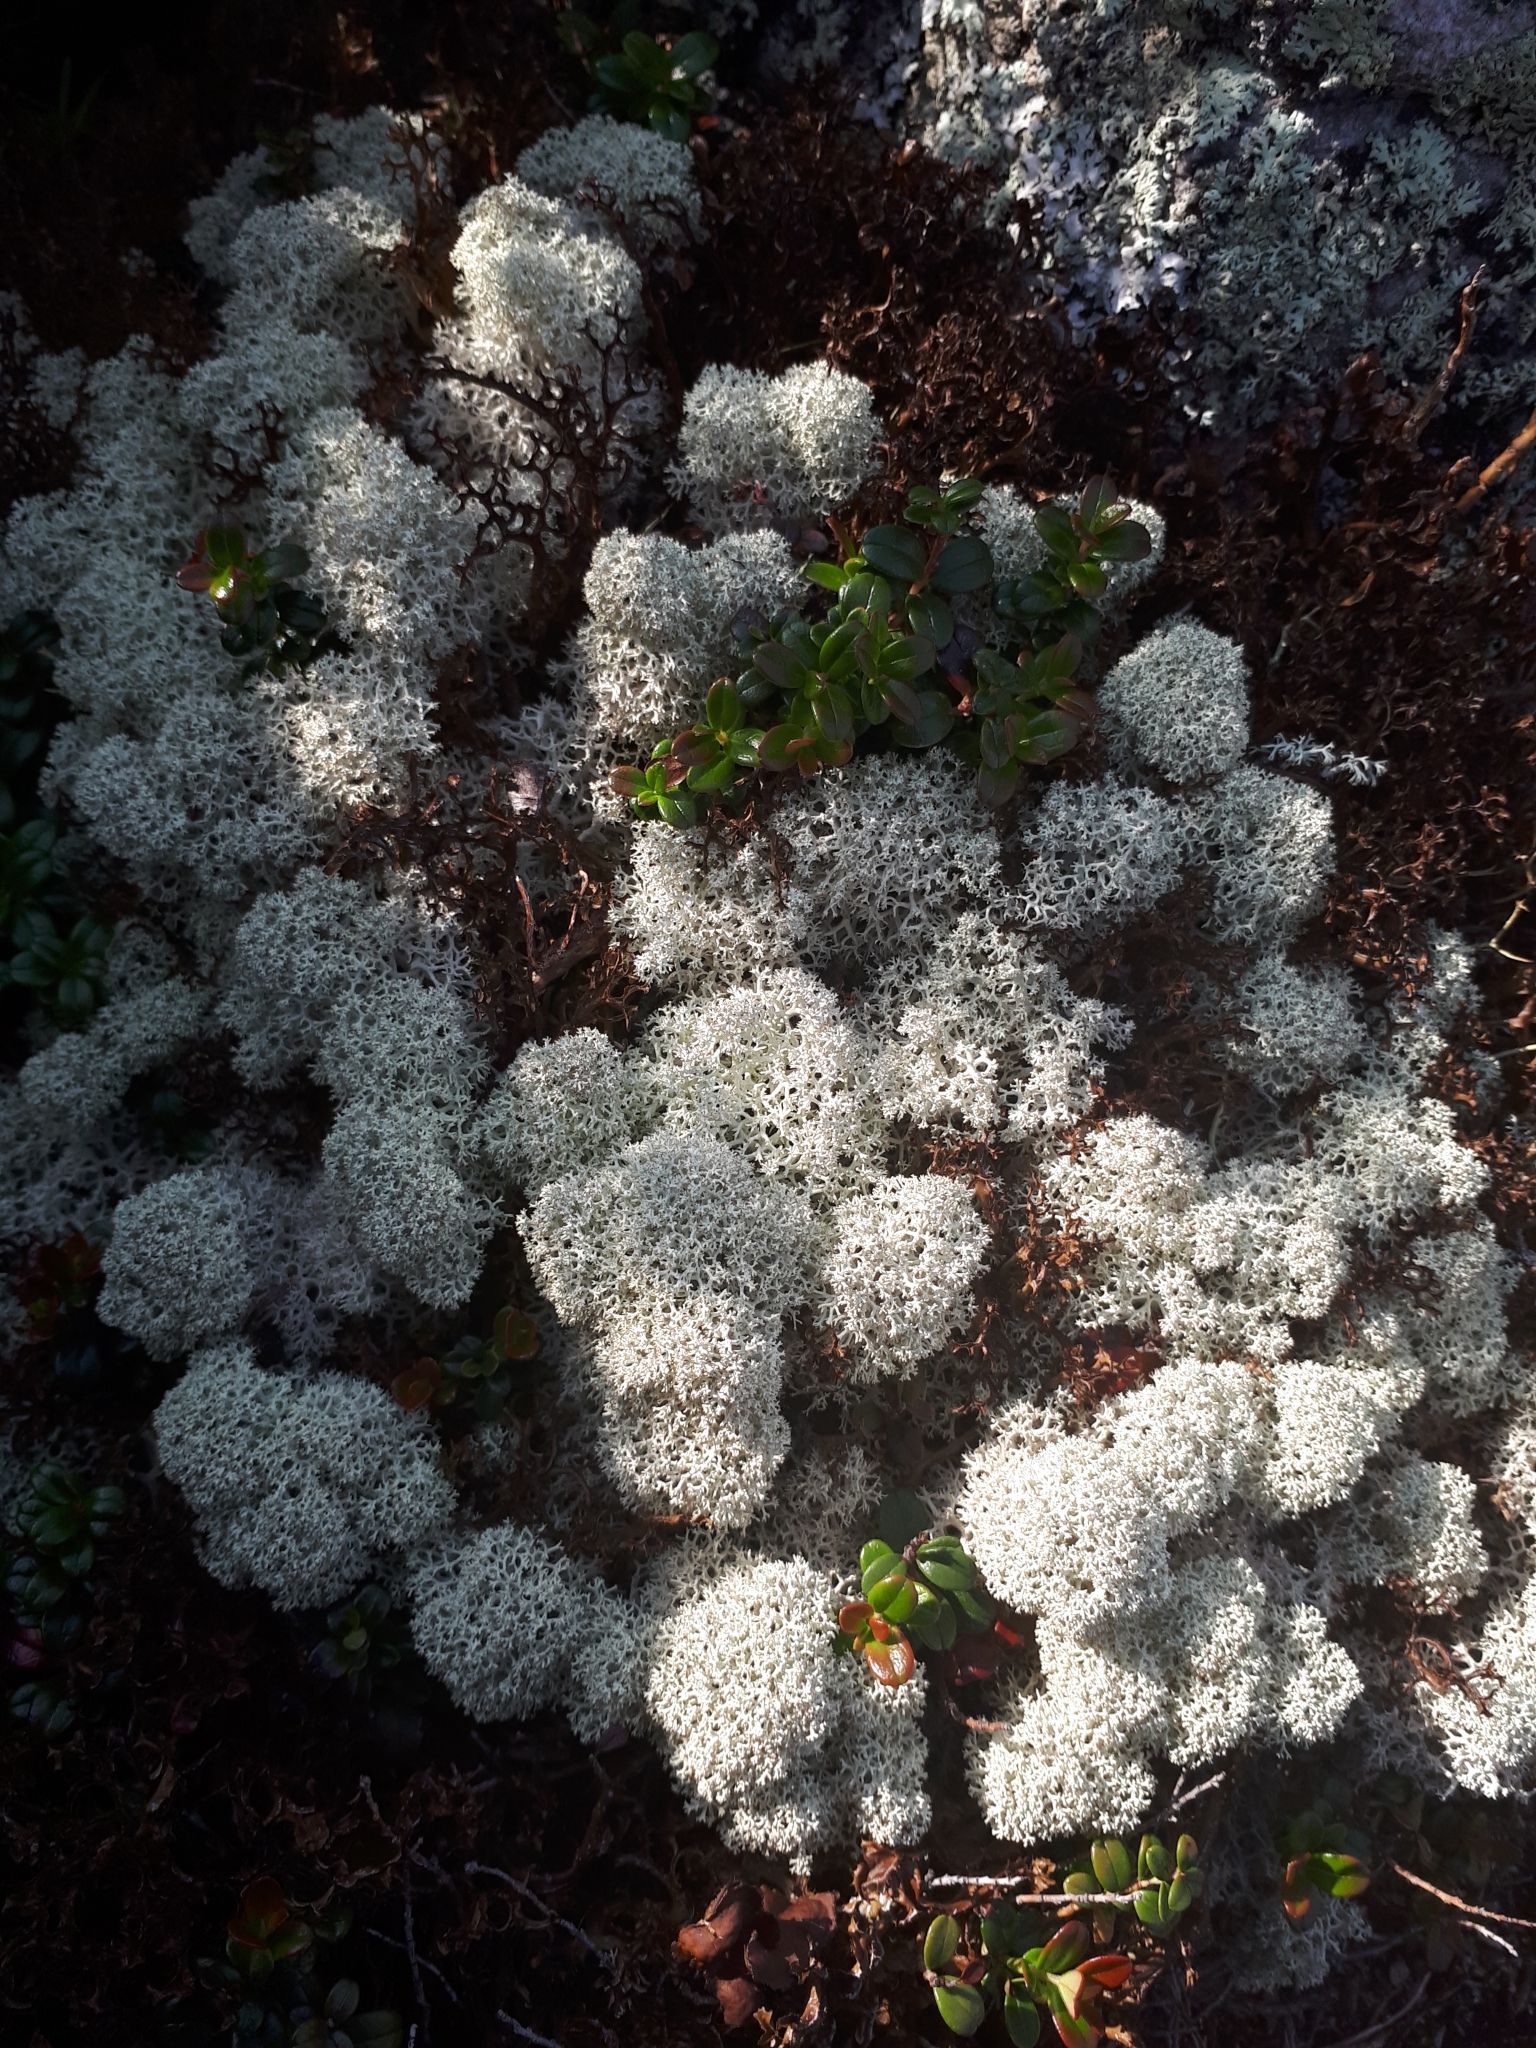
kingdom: Fungi
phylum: Ascomycota
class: Lecanoromycetes
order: Lecanorales
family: Cladoniaceae
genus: Cladonia
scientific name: Cladonia stellaris
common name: Star-tipped reindeer lichen
